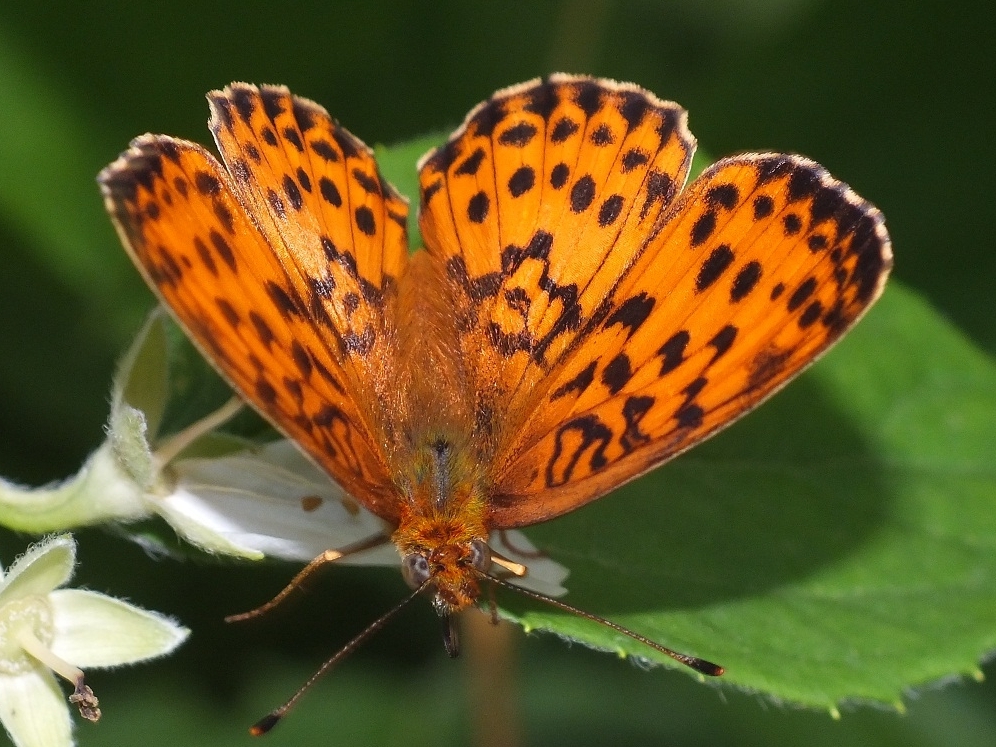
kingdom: Animalia
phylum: Arthropoda
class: Insecta
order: Lepidoptera
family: Nymphalidae
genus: Brenthis
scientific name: Brenthis daphne
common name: Marbled fritillary
